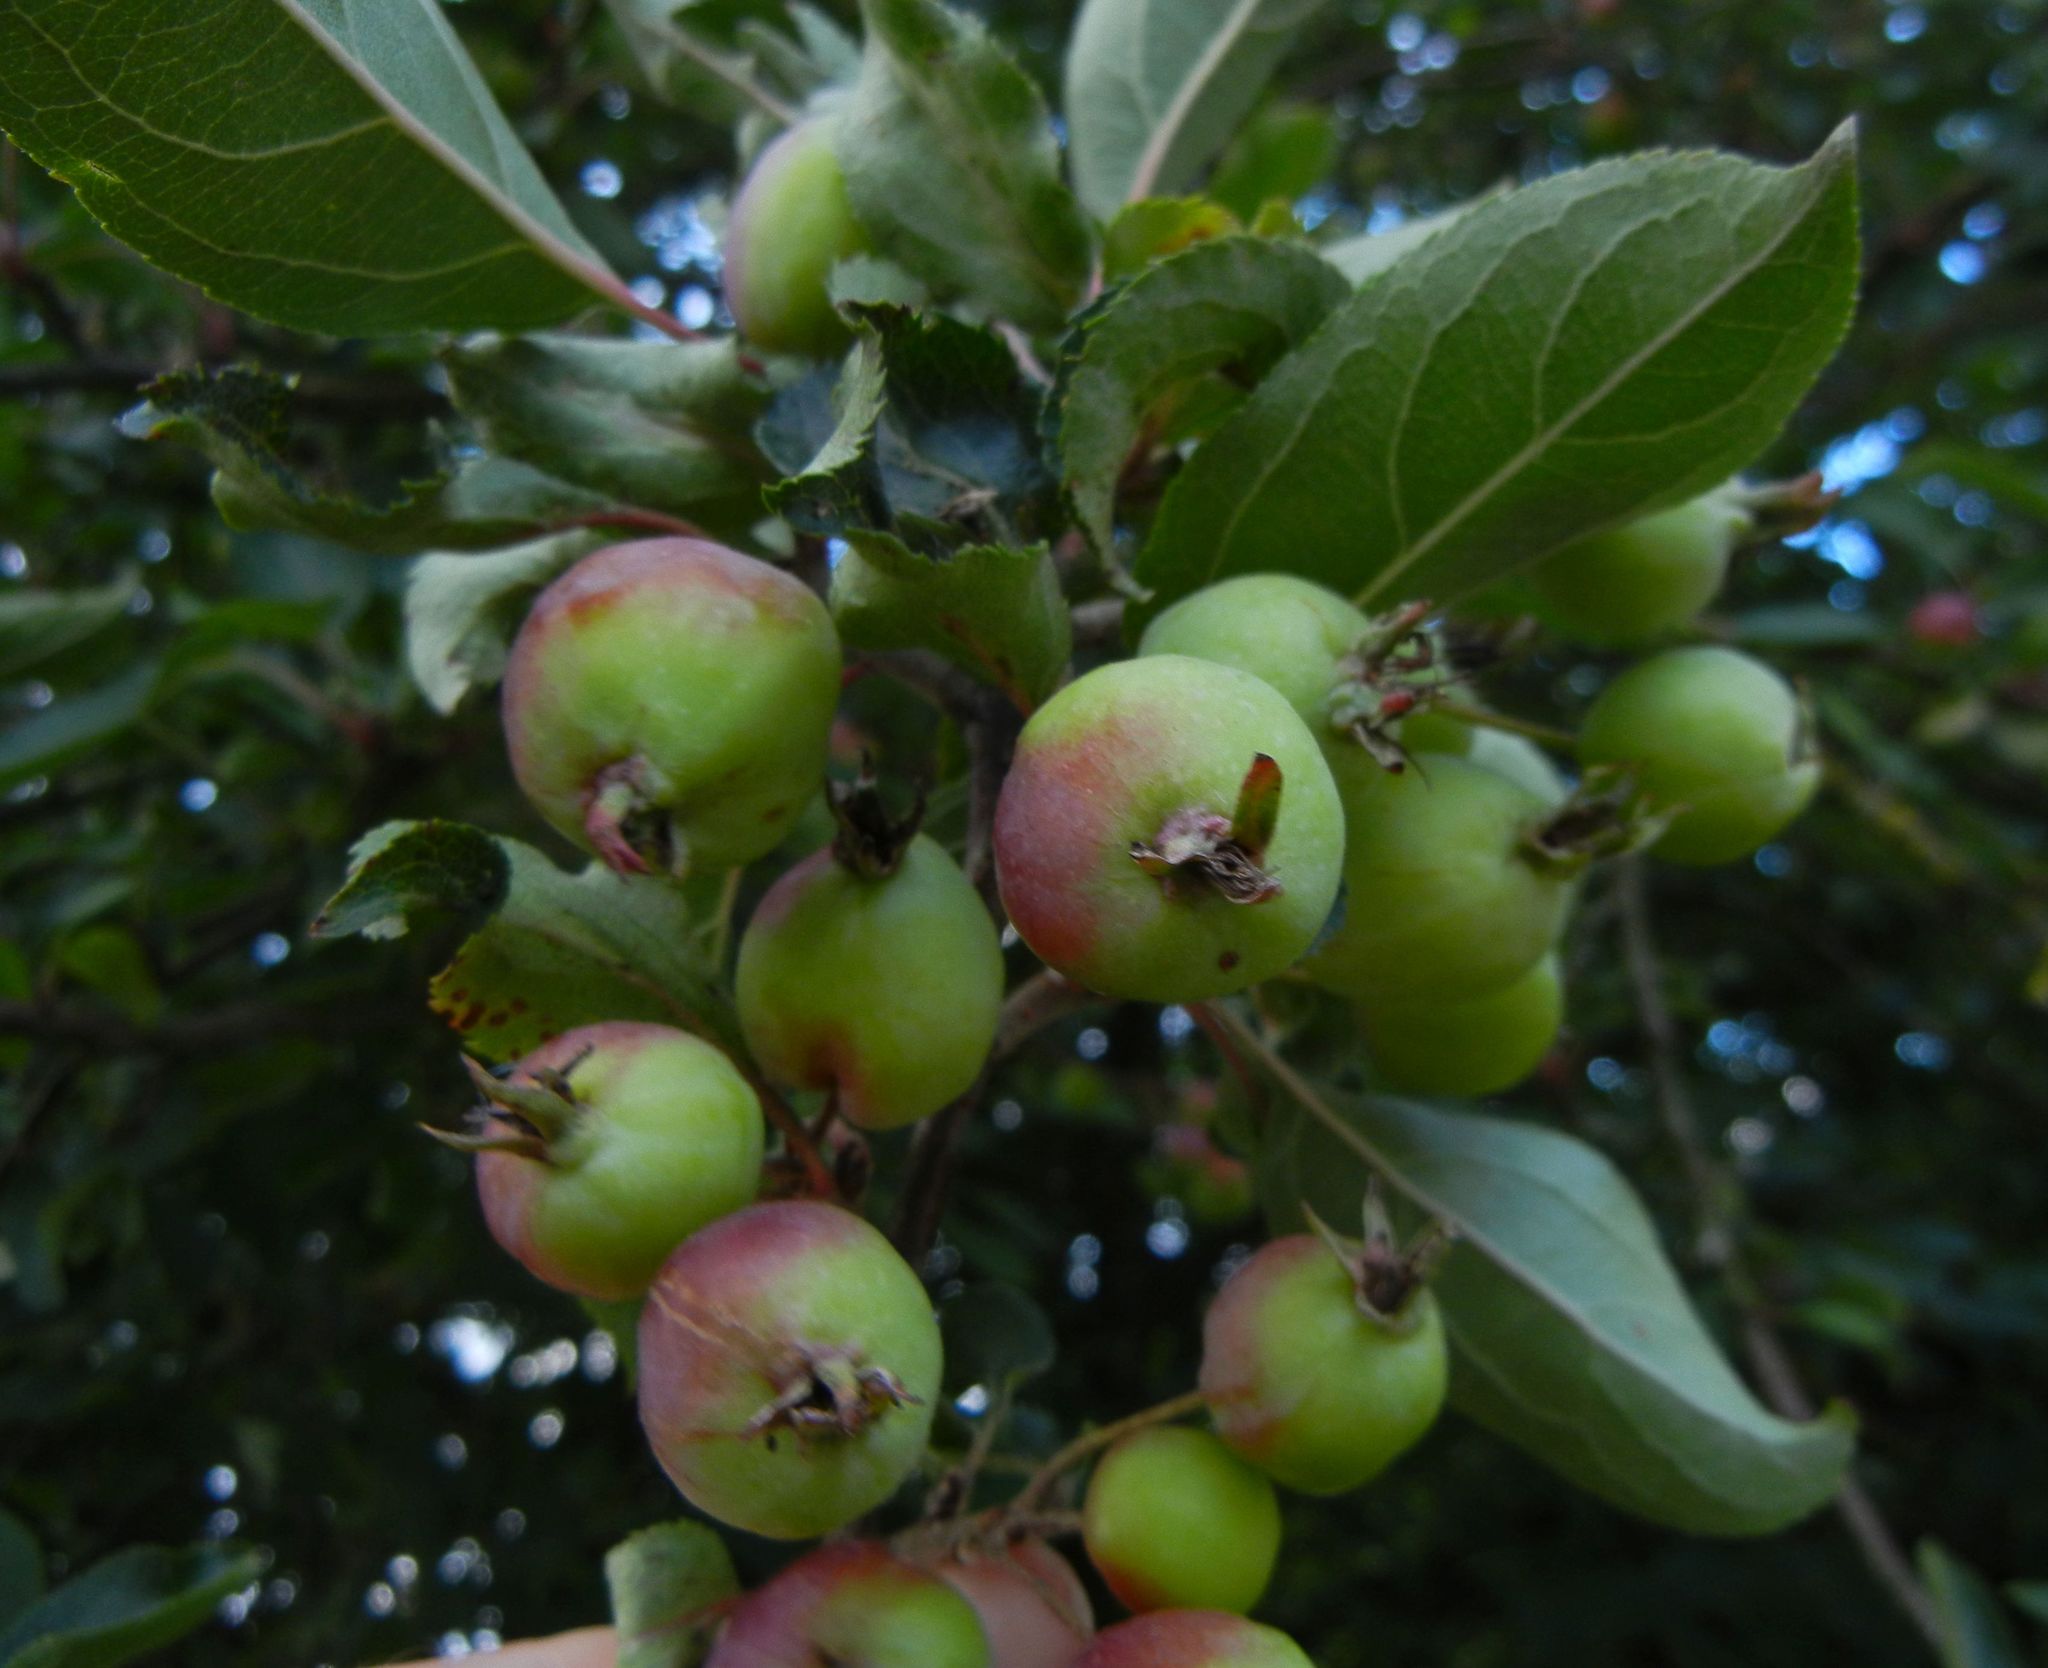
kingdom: Plantae
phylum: Tracheophyta
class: Magnoliopsida
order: Rosales
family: Rosaceae
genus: Malus
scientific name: Malus sylvestris
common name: Crab apple
